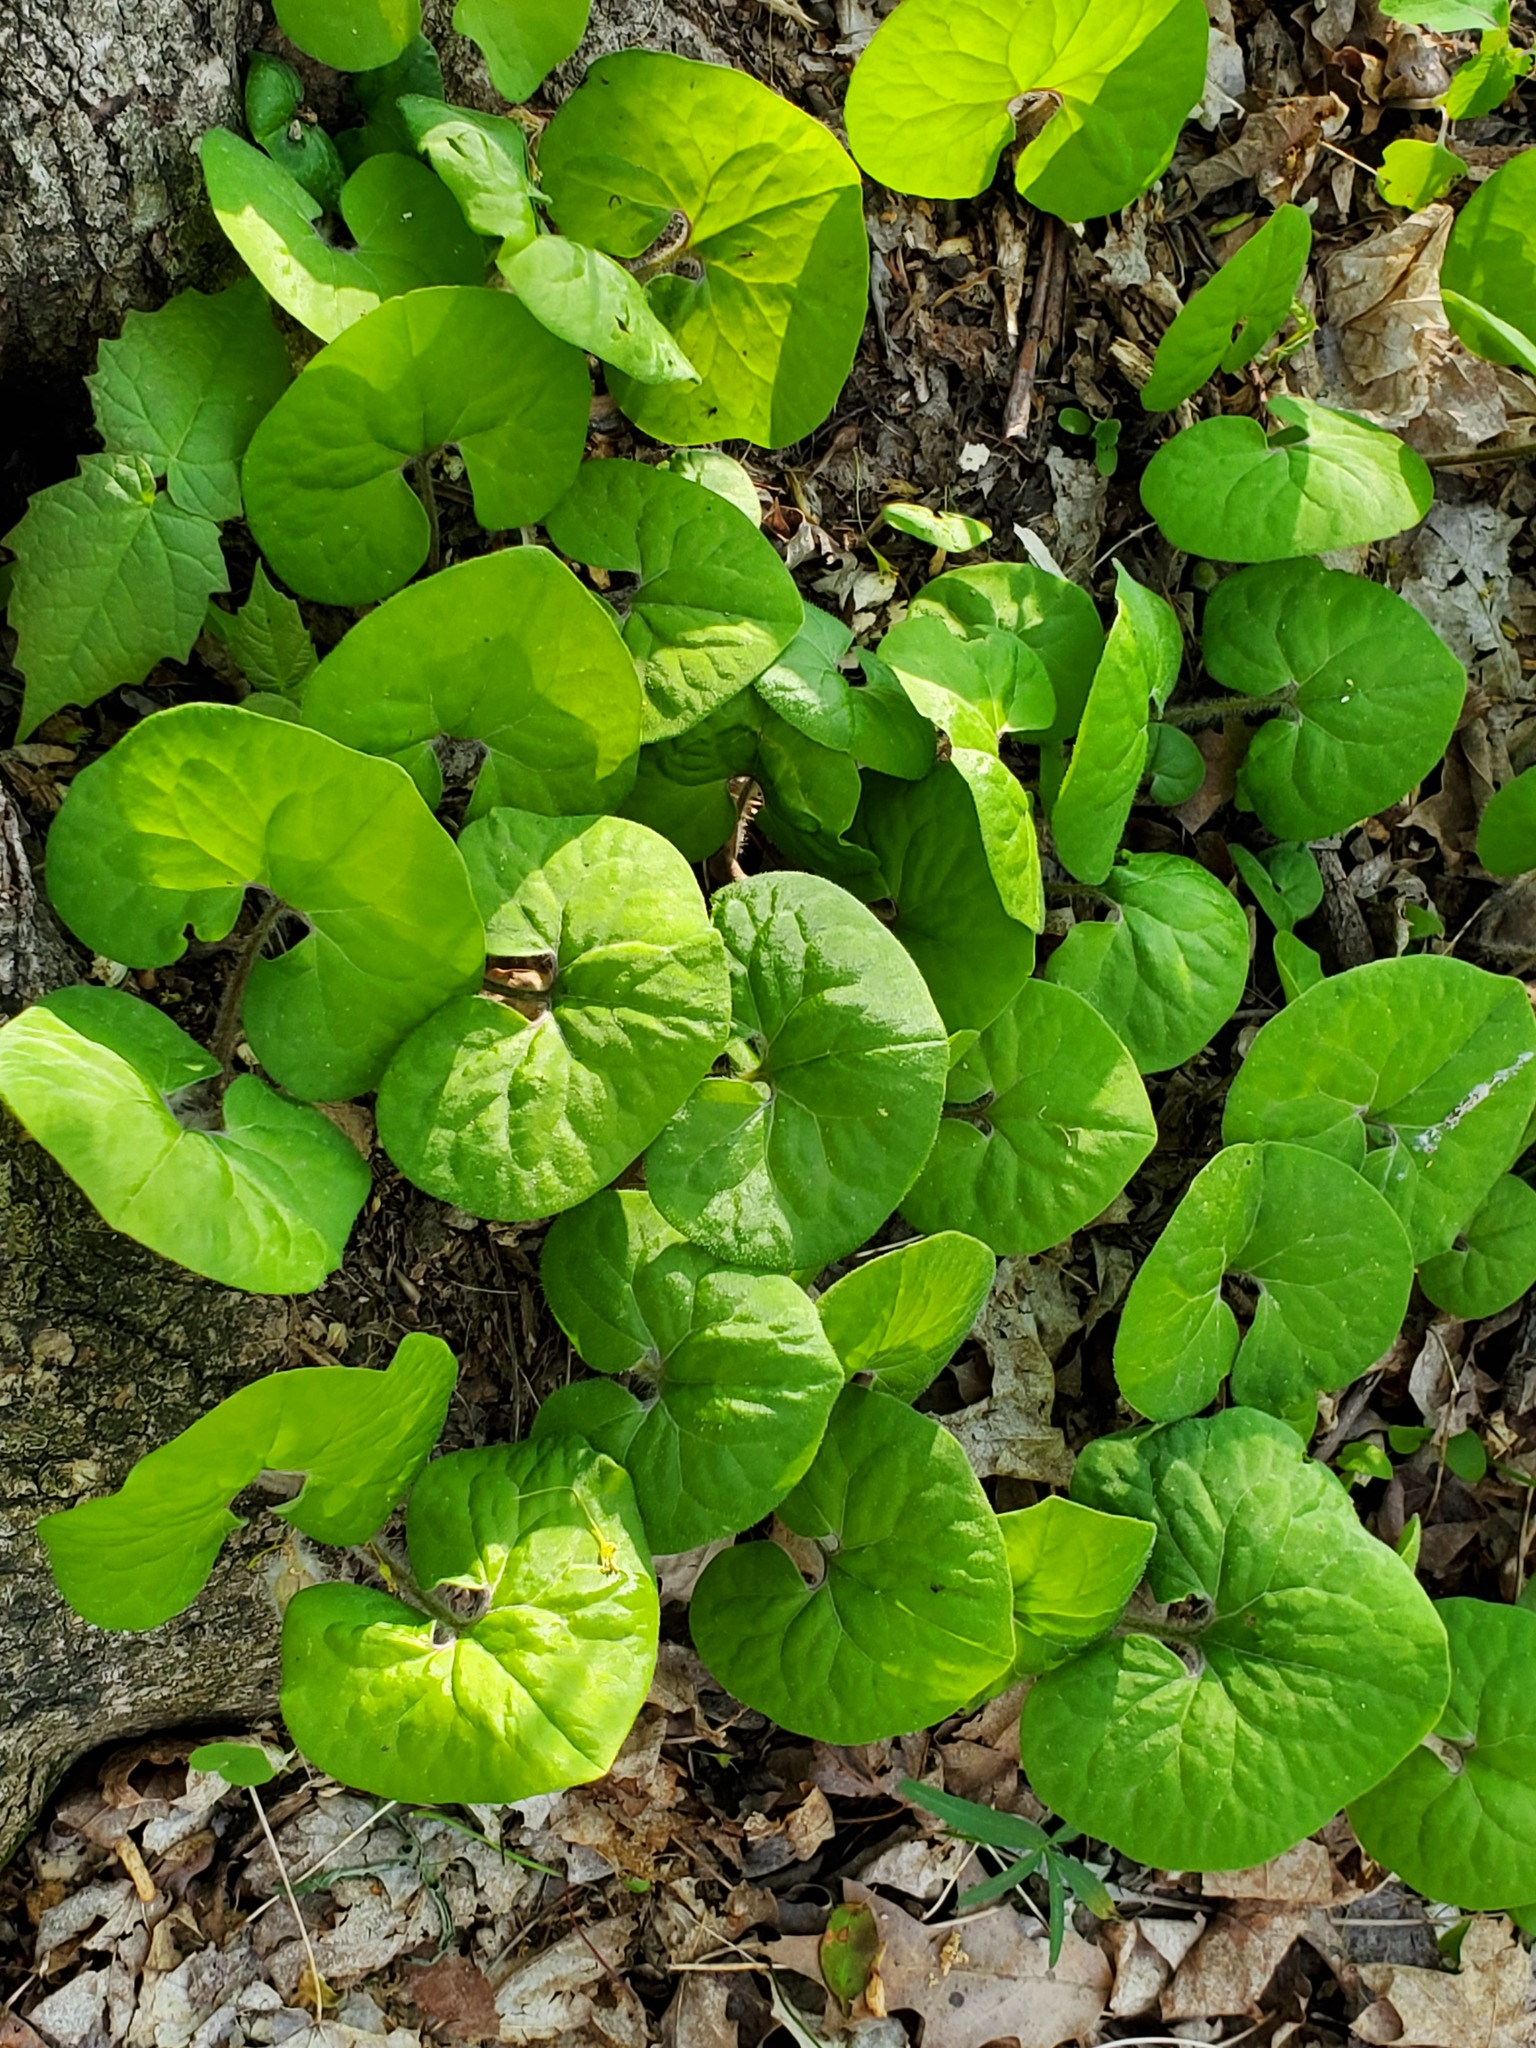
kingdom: Plantae
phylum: Tracheophyta
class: Magnoliopsida
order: Piperales
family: Aristolochiaceae
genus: Asarum
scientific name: Asarum canadense
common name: Wild ginger
